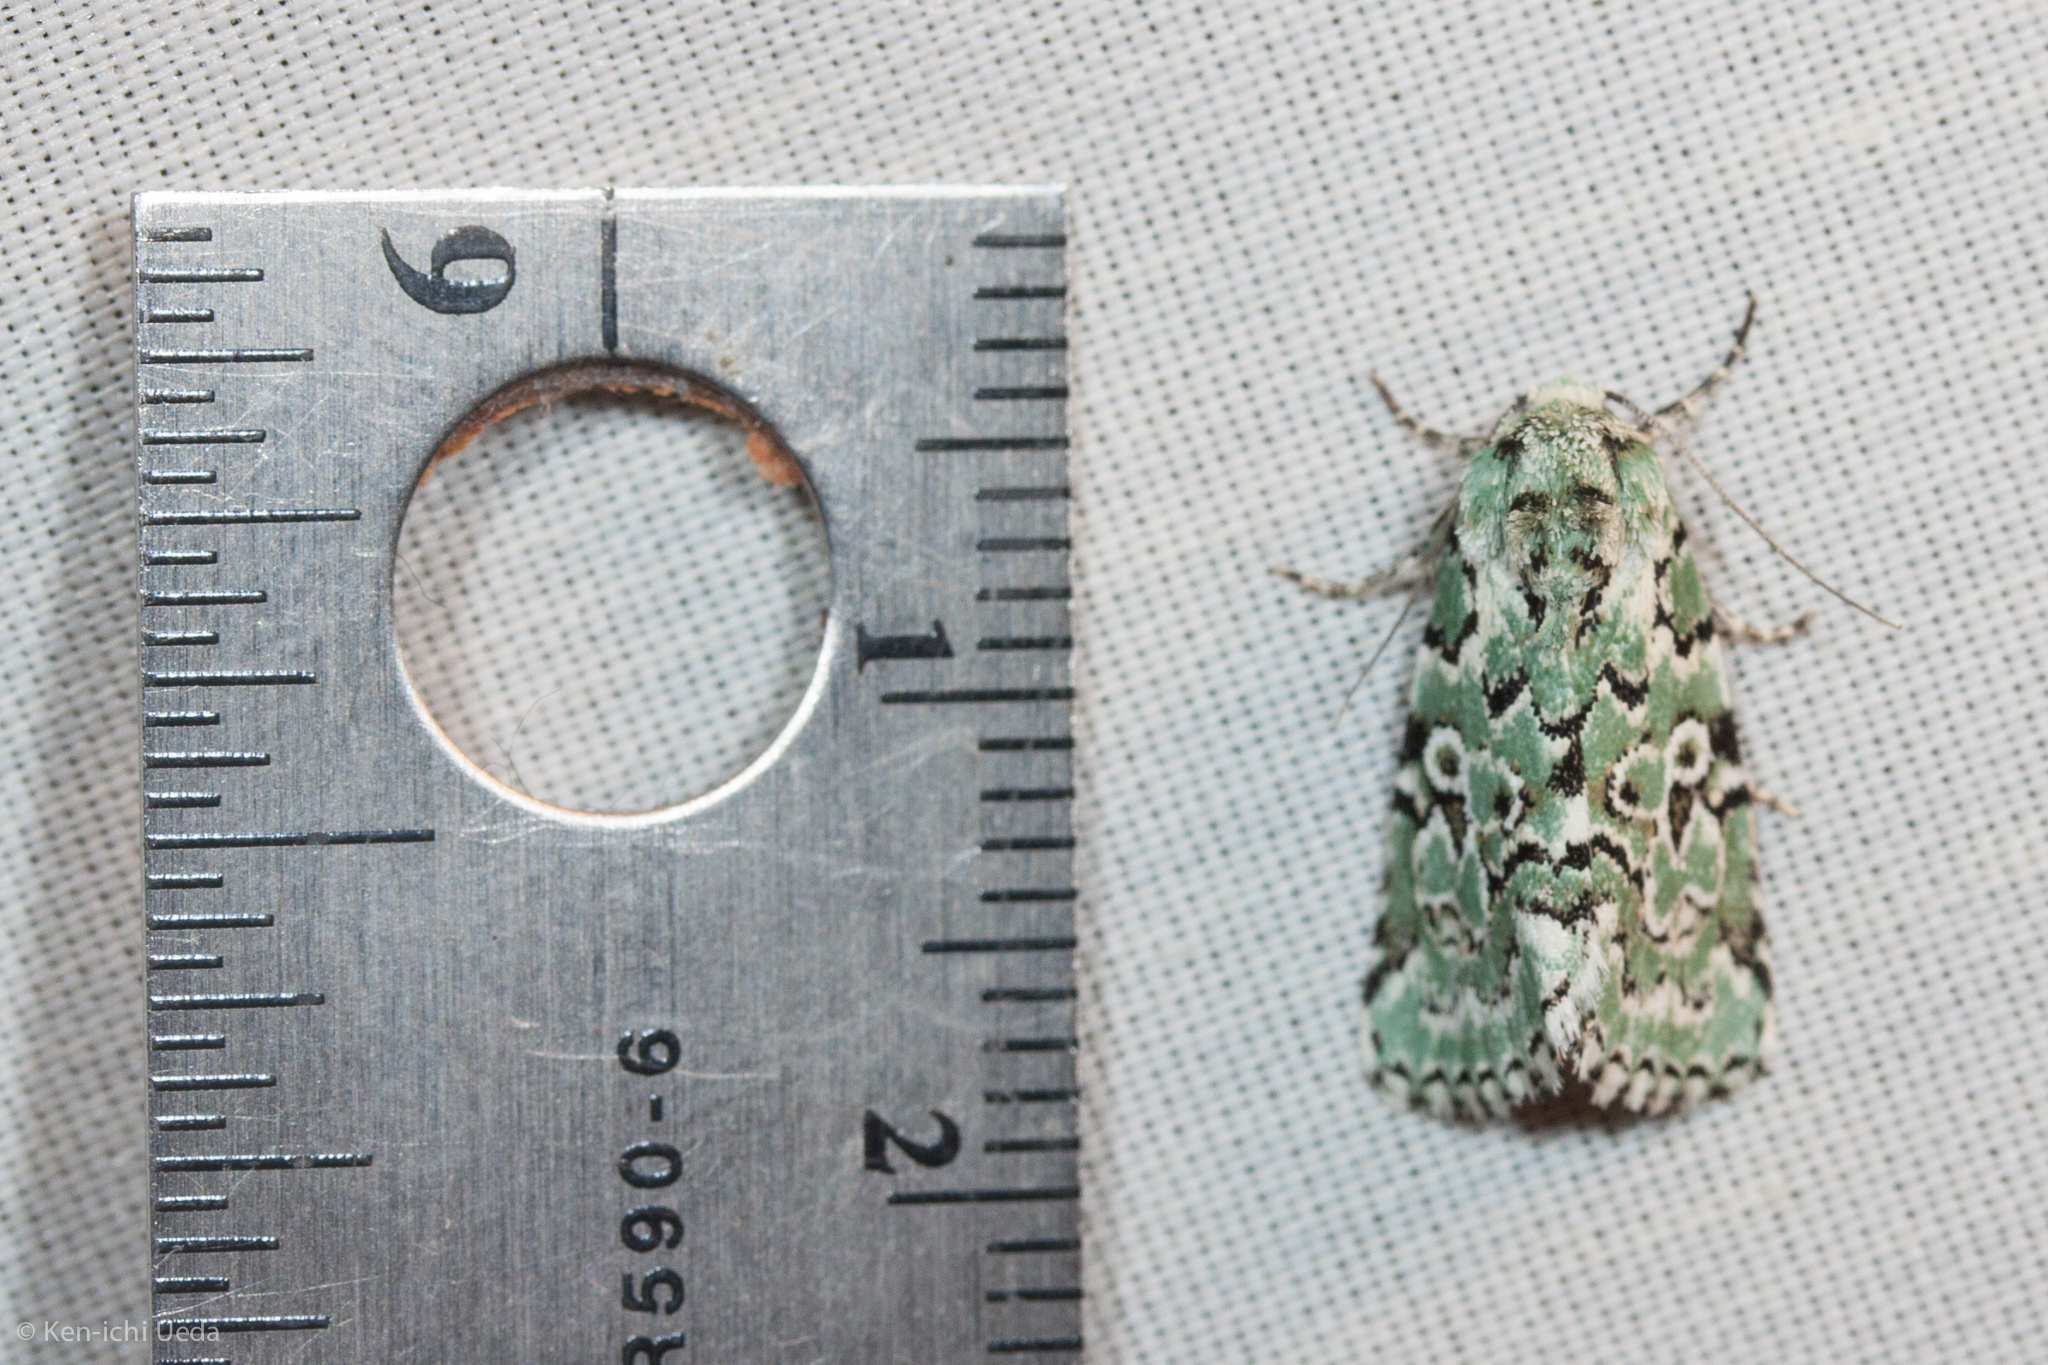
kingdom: Animalia
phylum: Arthropoda
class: Insecta
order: Lepidoptera
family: Noctuidae
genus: Bryolymnia
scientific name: Bryolymnia viridata
